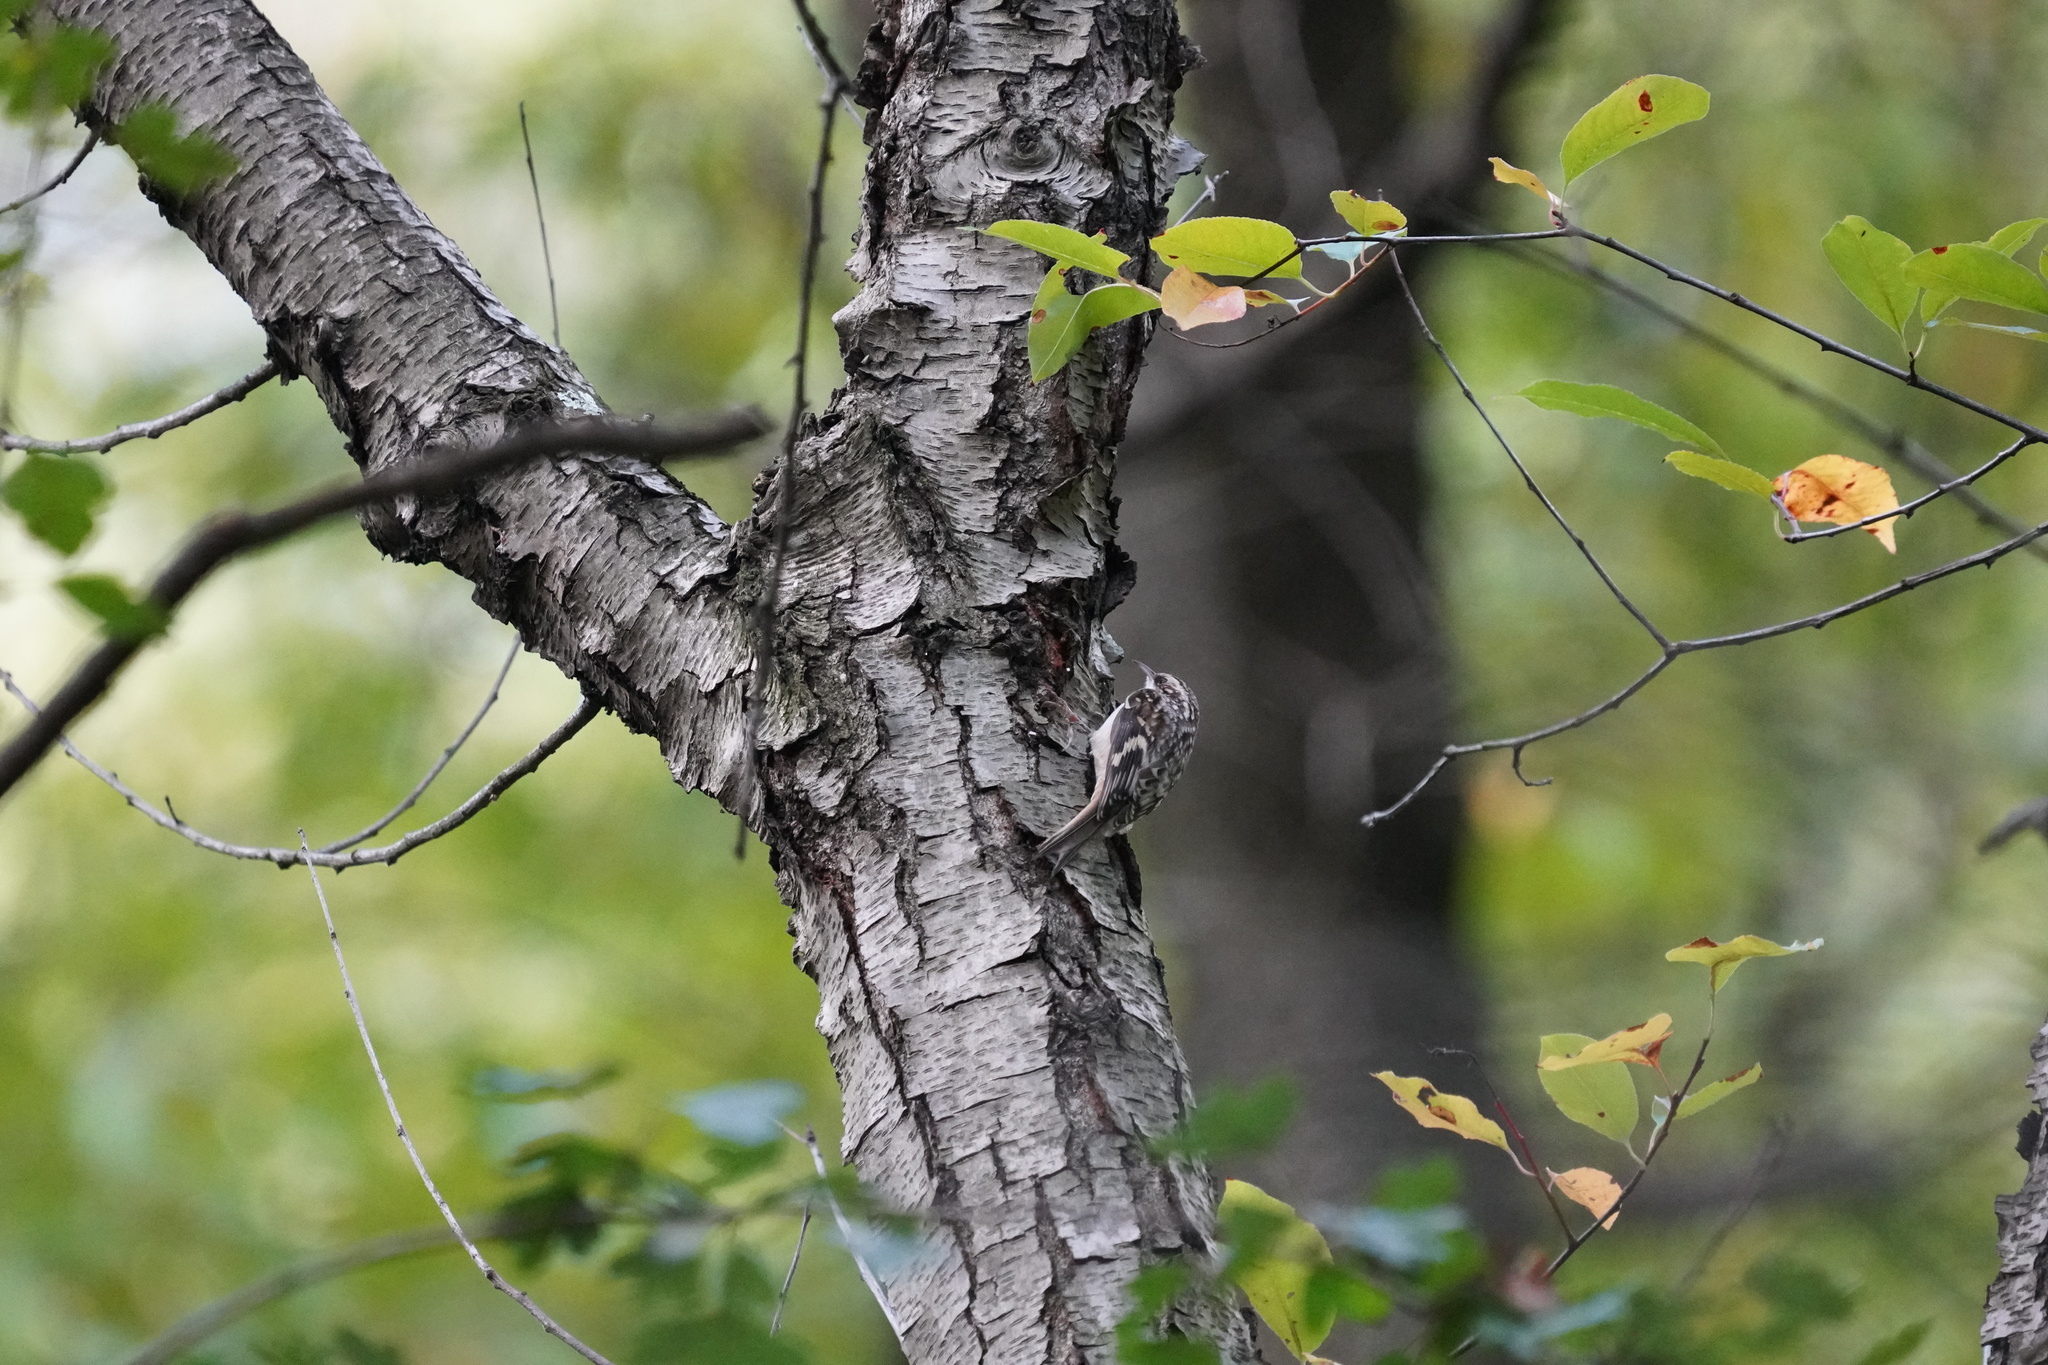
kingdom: Animalia
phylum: Chordata
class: Aves
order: Passeriformes
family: Certhiidae
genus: Certhia
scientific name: Certhia americana
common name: Brown creeper
